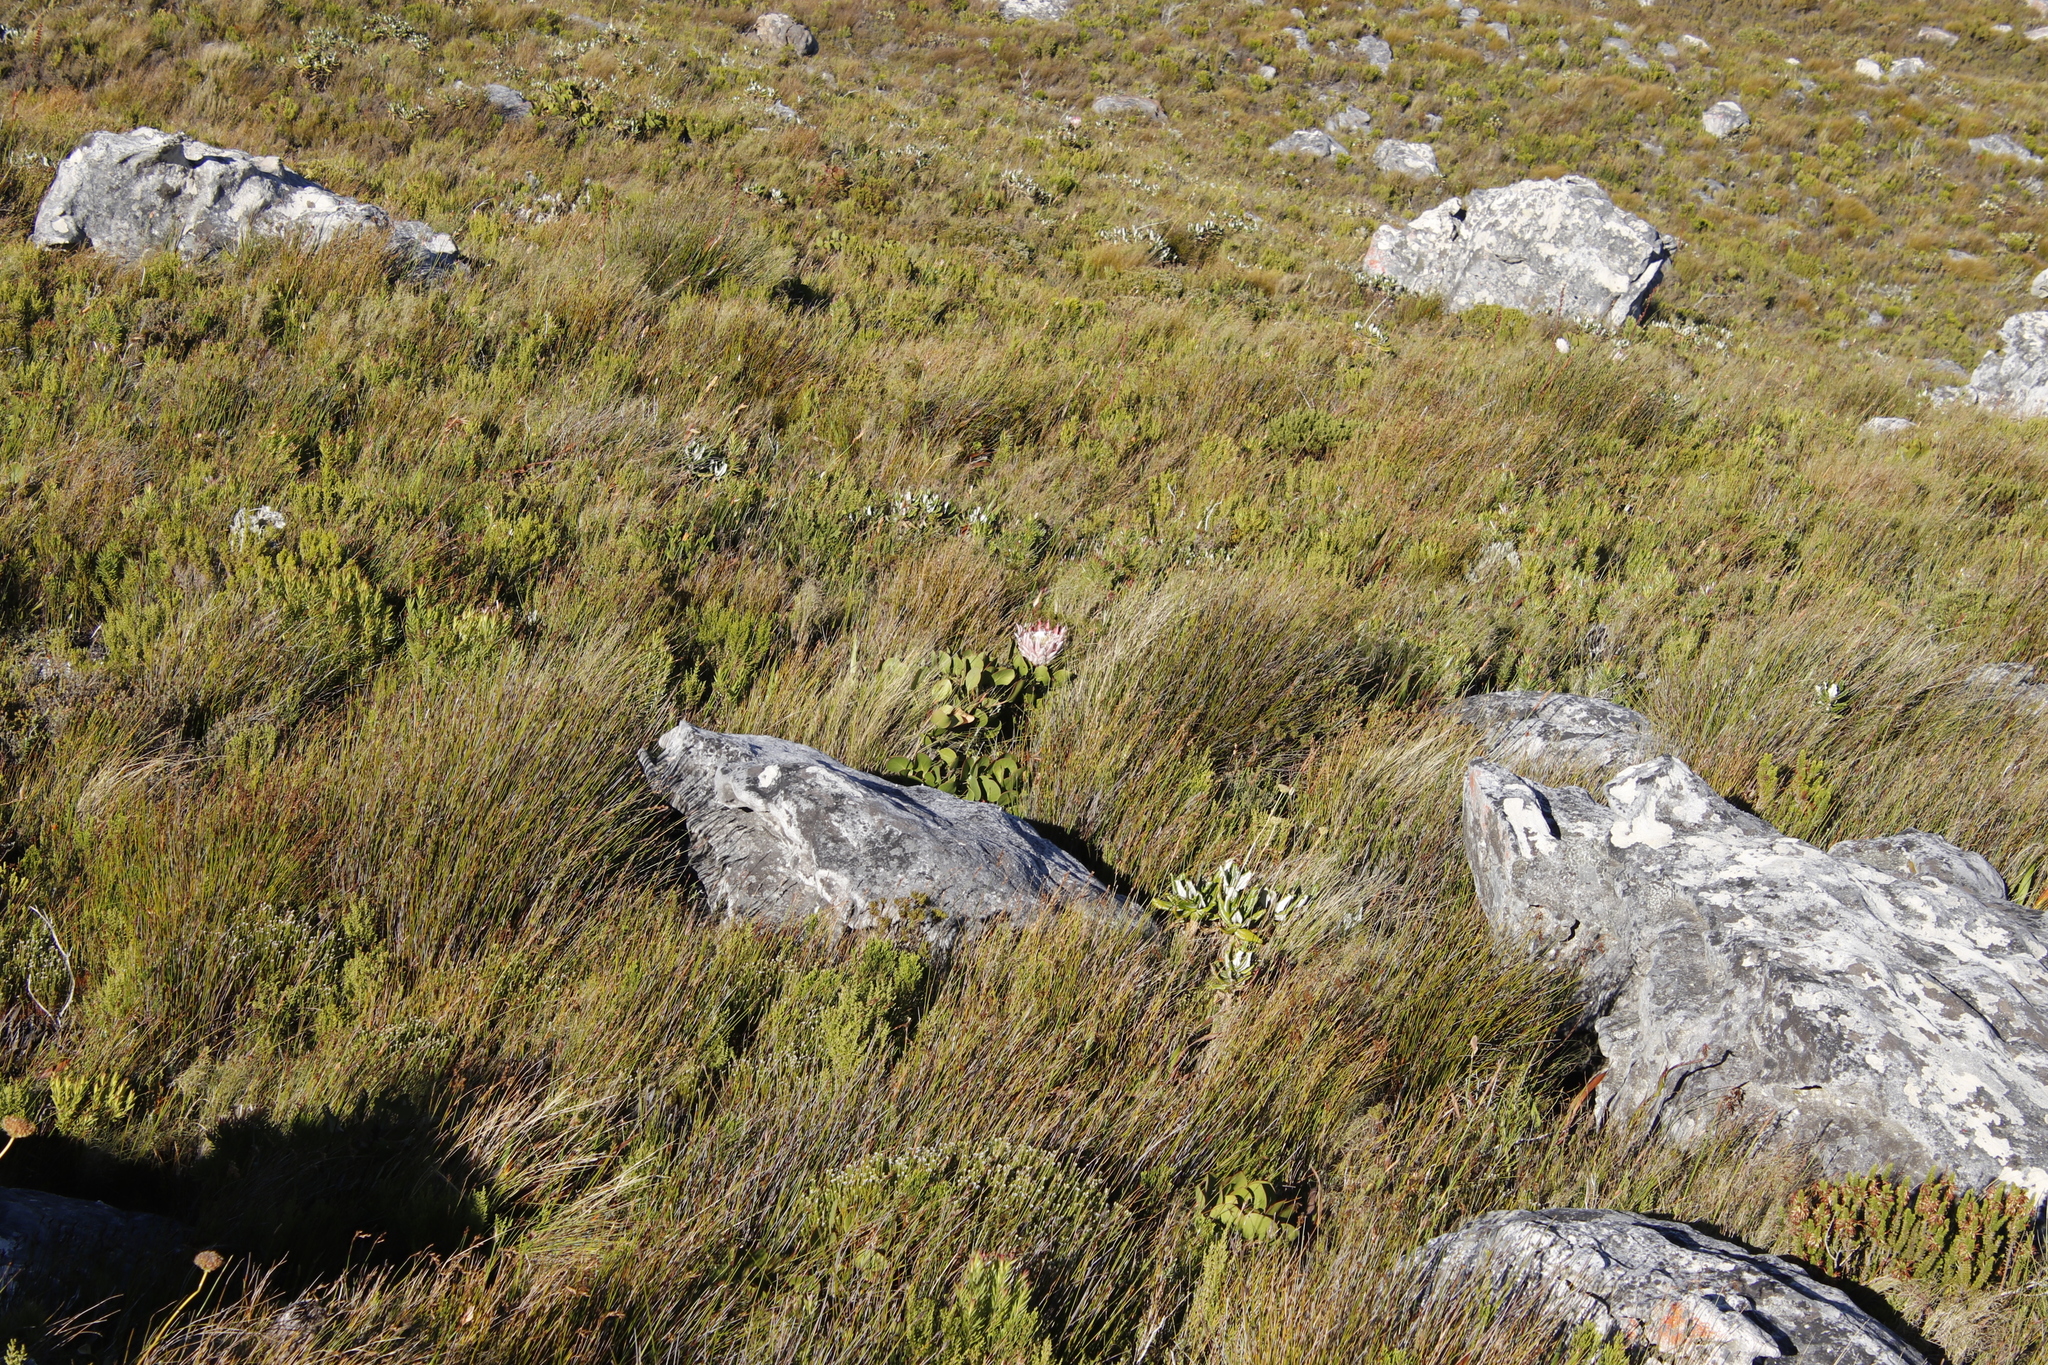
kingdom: Plantae
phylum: Tracheophyta
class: Magnoliopsida
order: Proteales
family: Proteaceae
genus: Protea
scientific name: Protea cynaroides
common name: King protea
